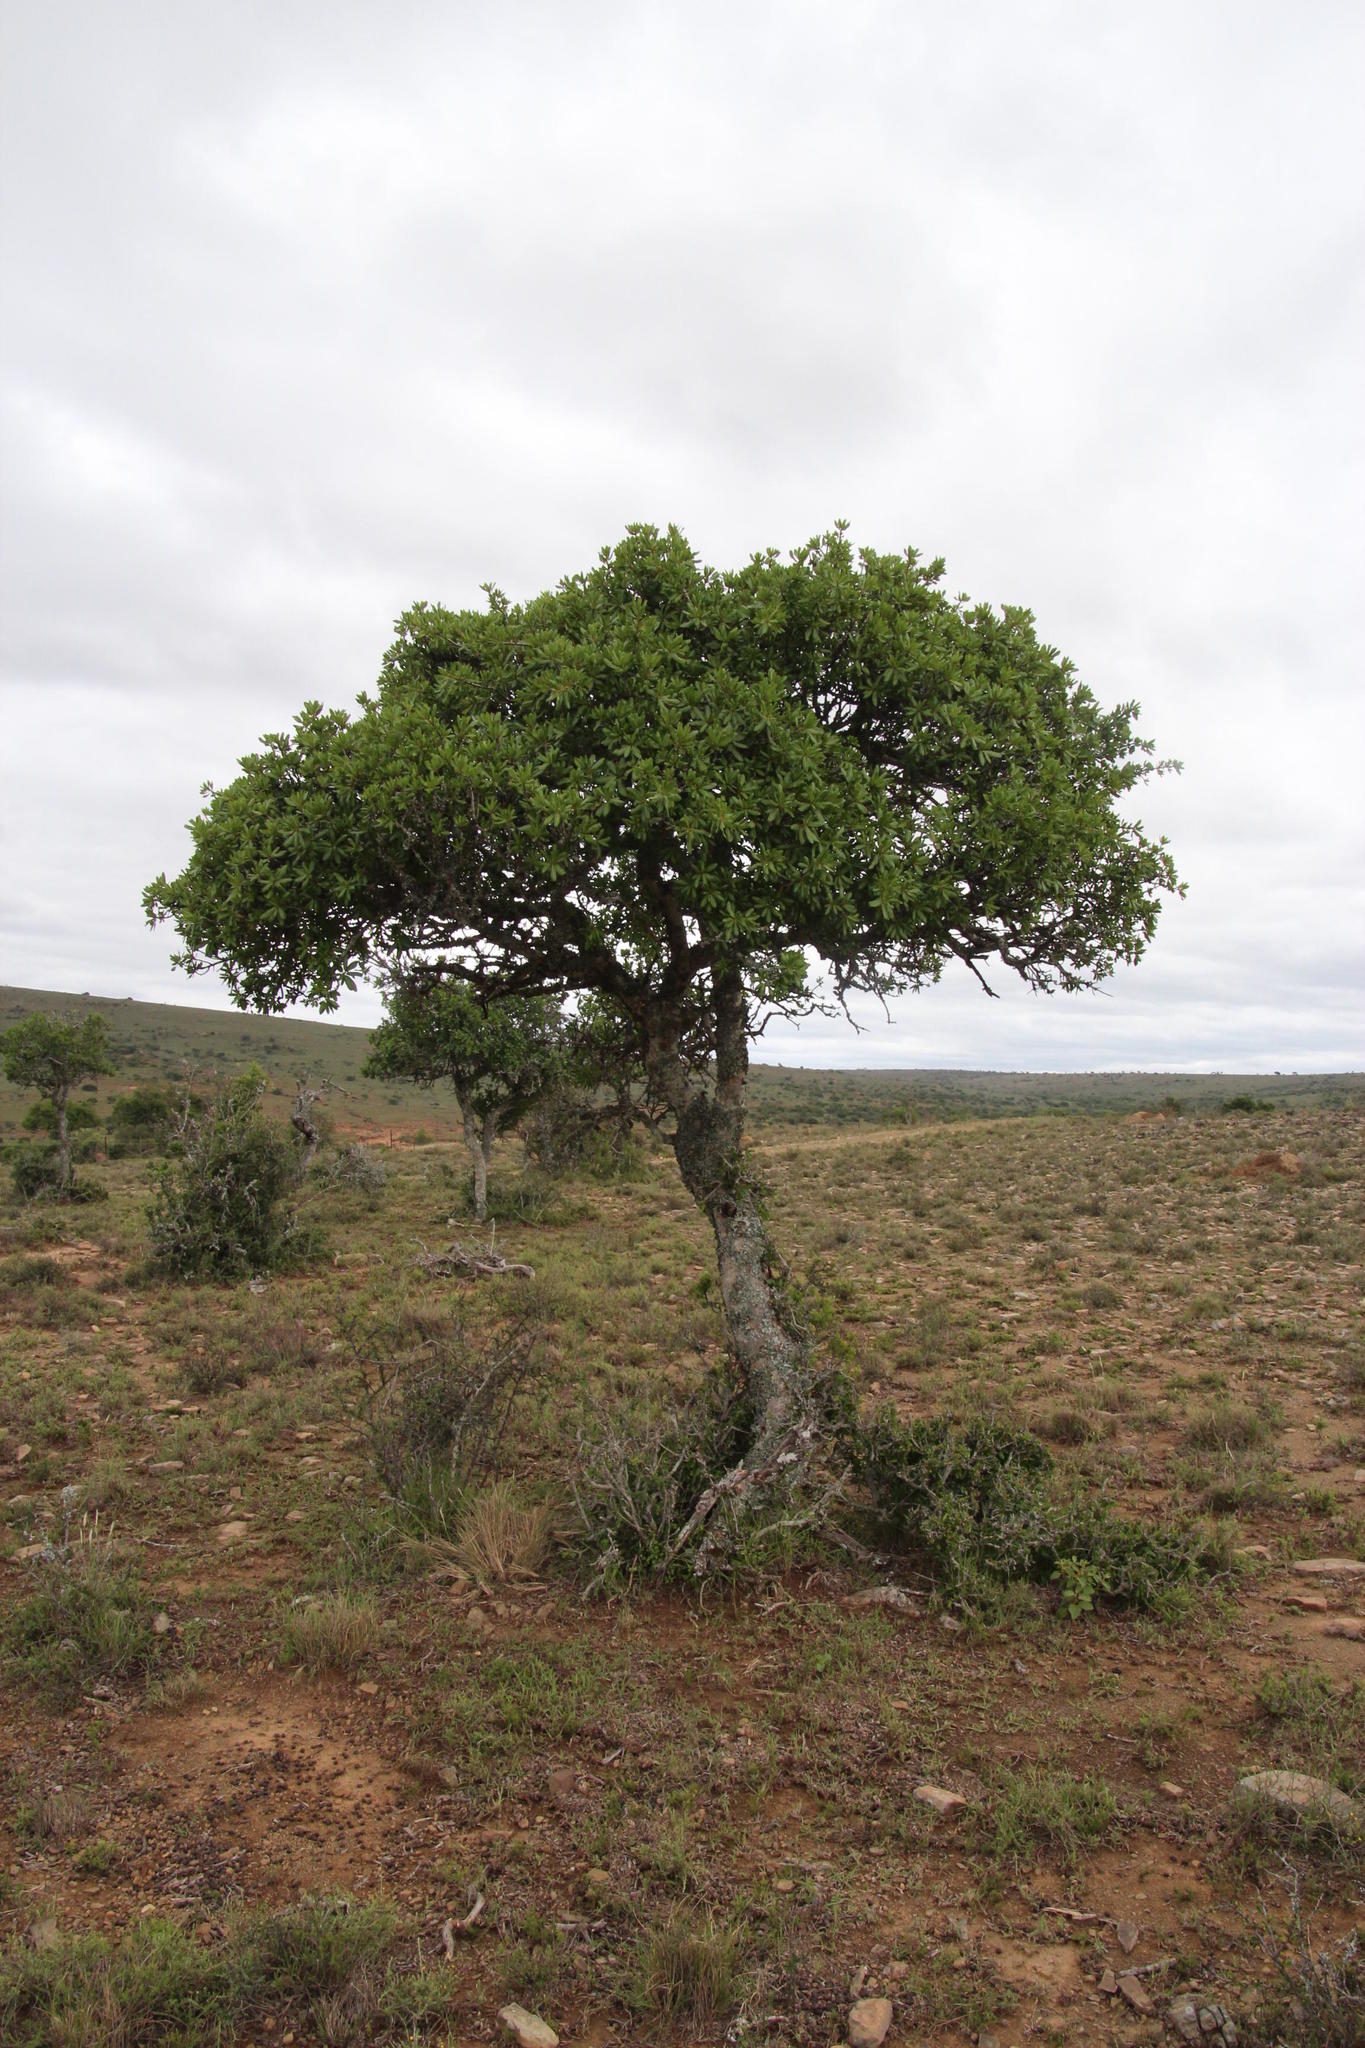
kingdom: Plantae
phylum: Tracheophyta
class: Magnoliopsida
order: Sapindales
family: Sapindaceae
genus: Pappea
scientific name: Pappea capensis
